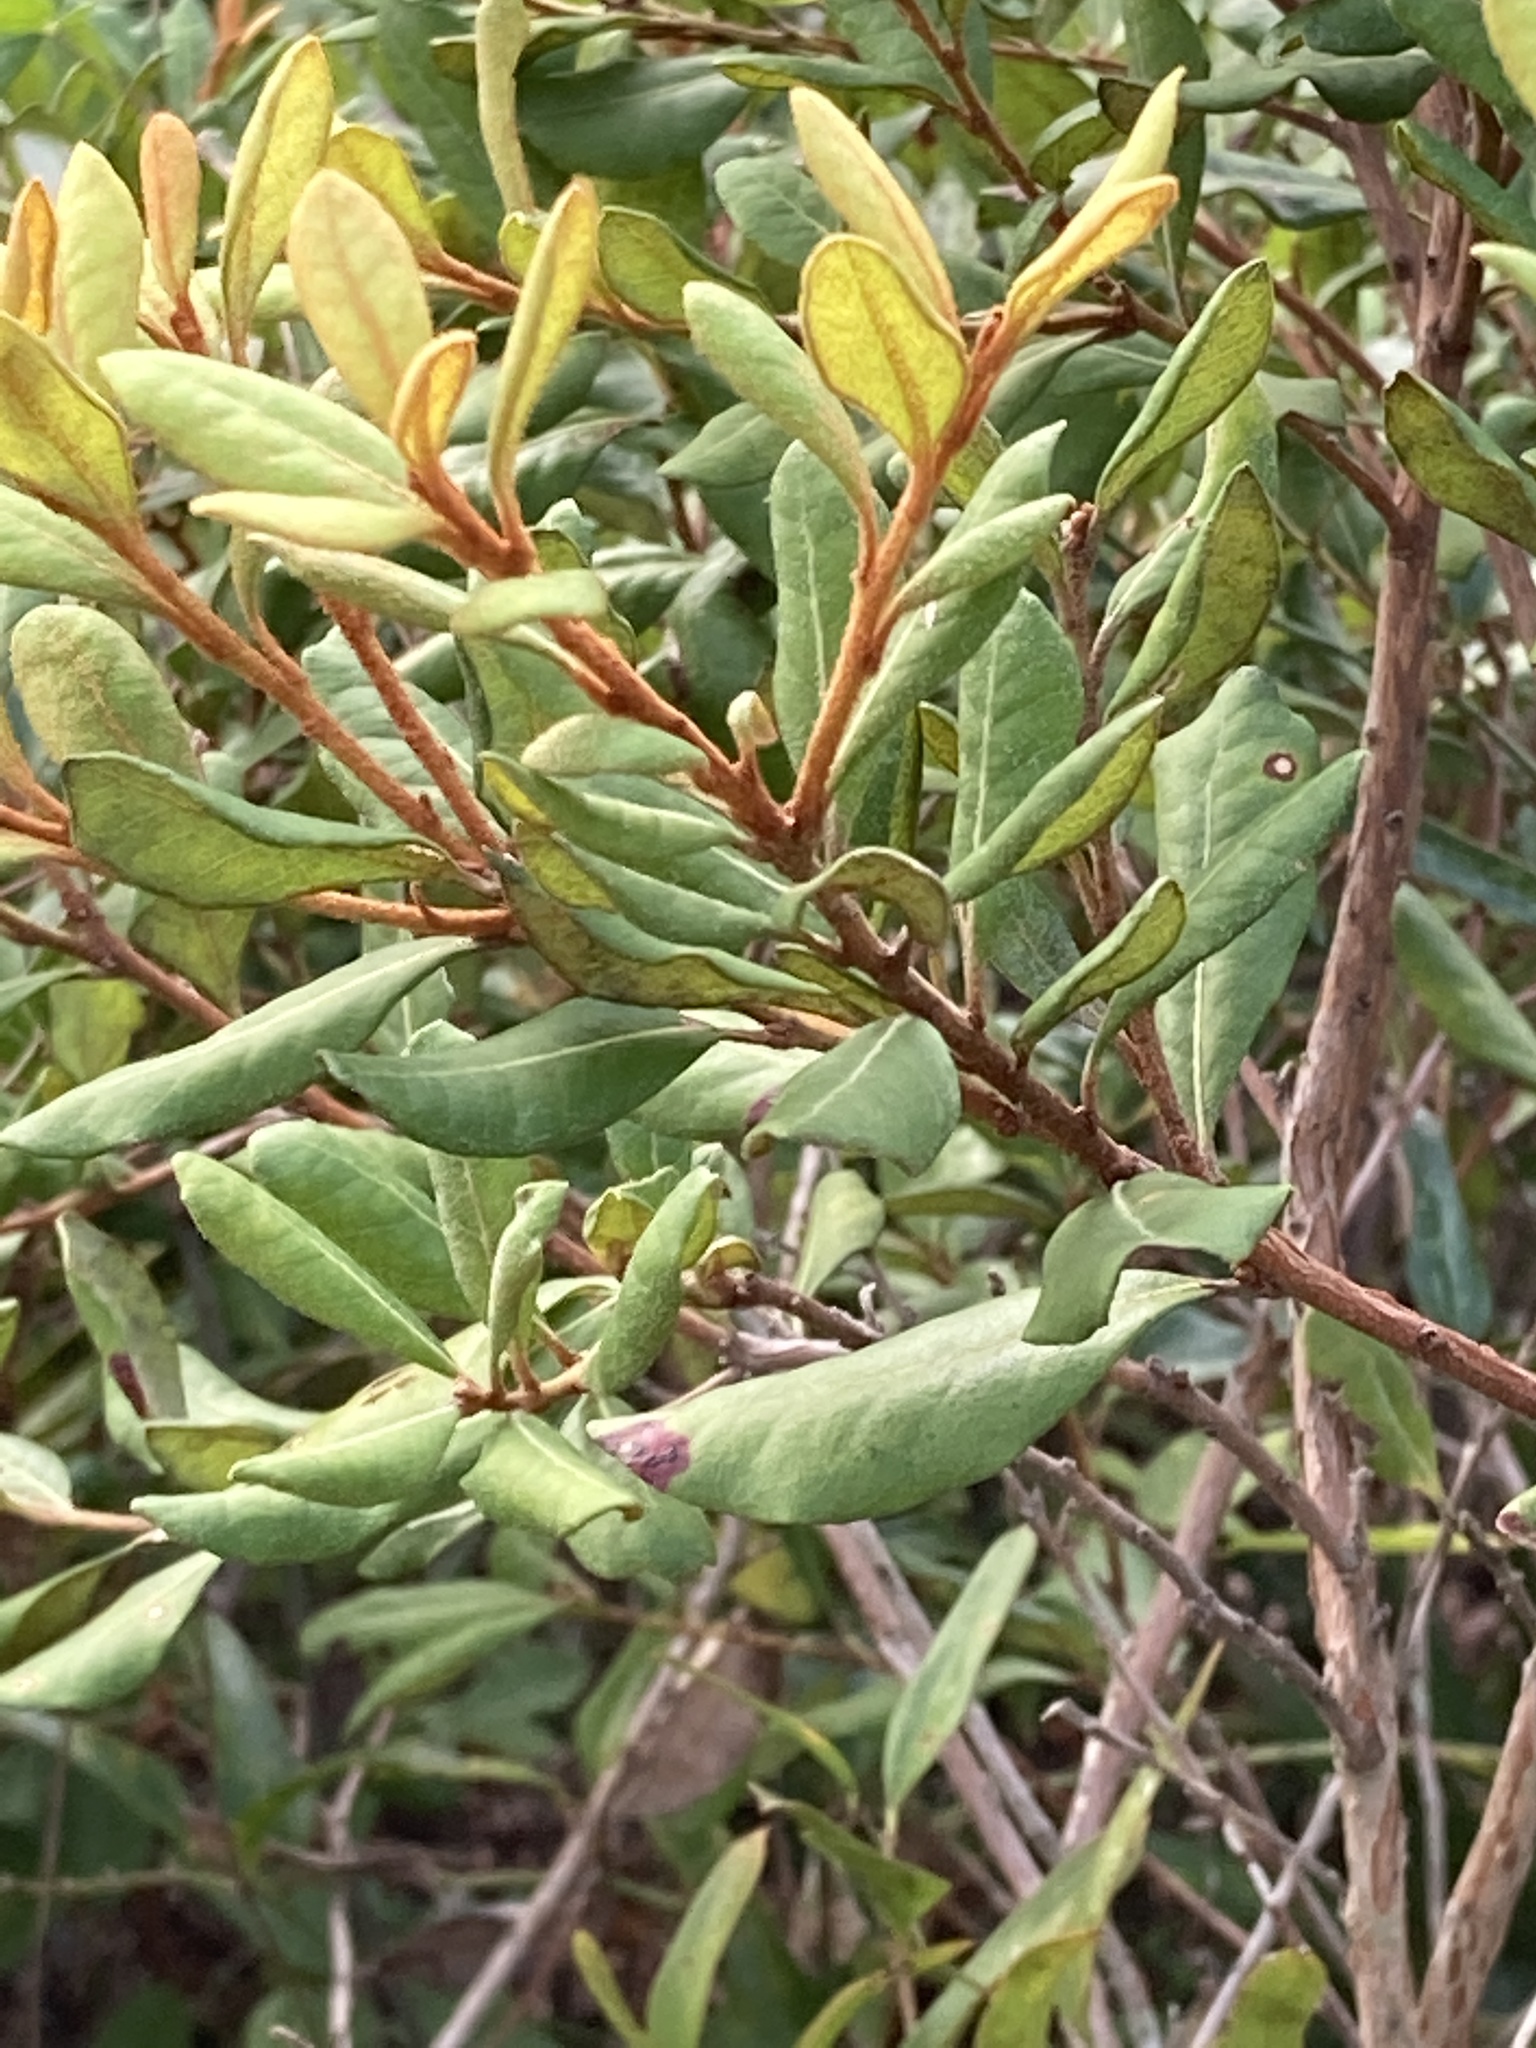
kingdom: Plantae
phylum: Tracheophyta
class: Magnoliopsida
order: Ericales
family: Ericaceae
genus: Lyonia
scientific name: Lyonia ferruginea
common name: Rusty lyonia
